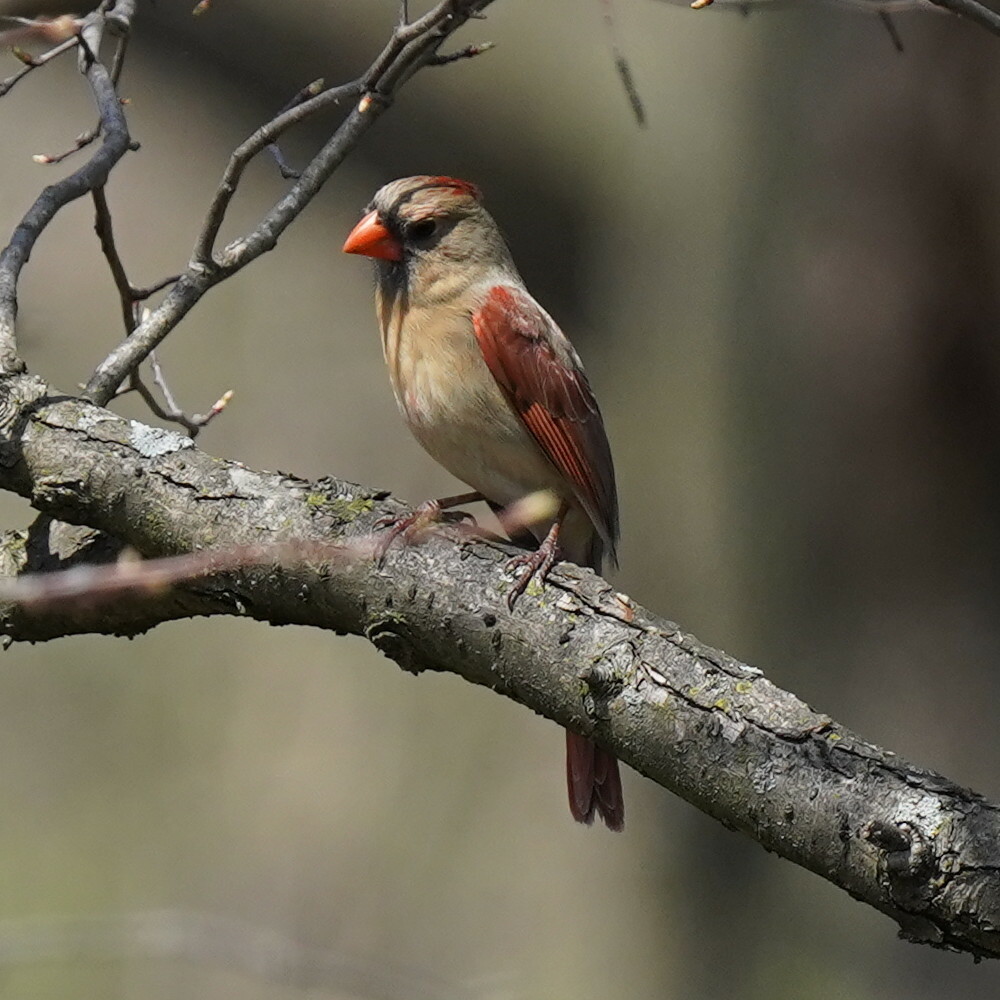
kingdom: Animalia
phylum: Chordata
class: Aves
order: Passeriformes
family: Cardinalidae
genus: Cardinalis
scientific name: Cardinalis cardinalis
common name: Northern cardinal
